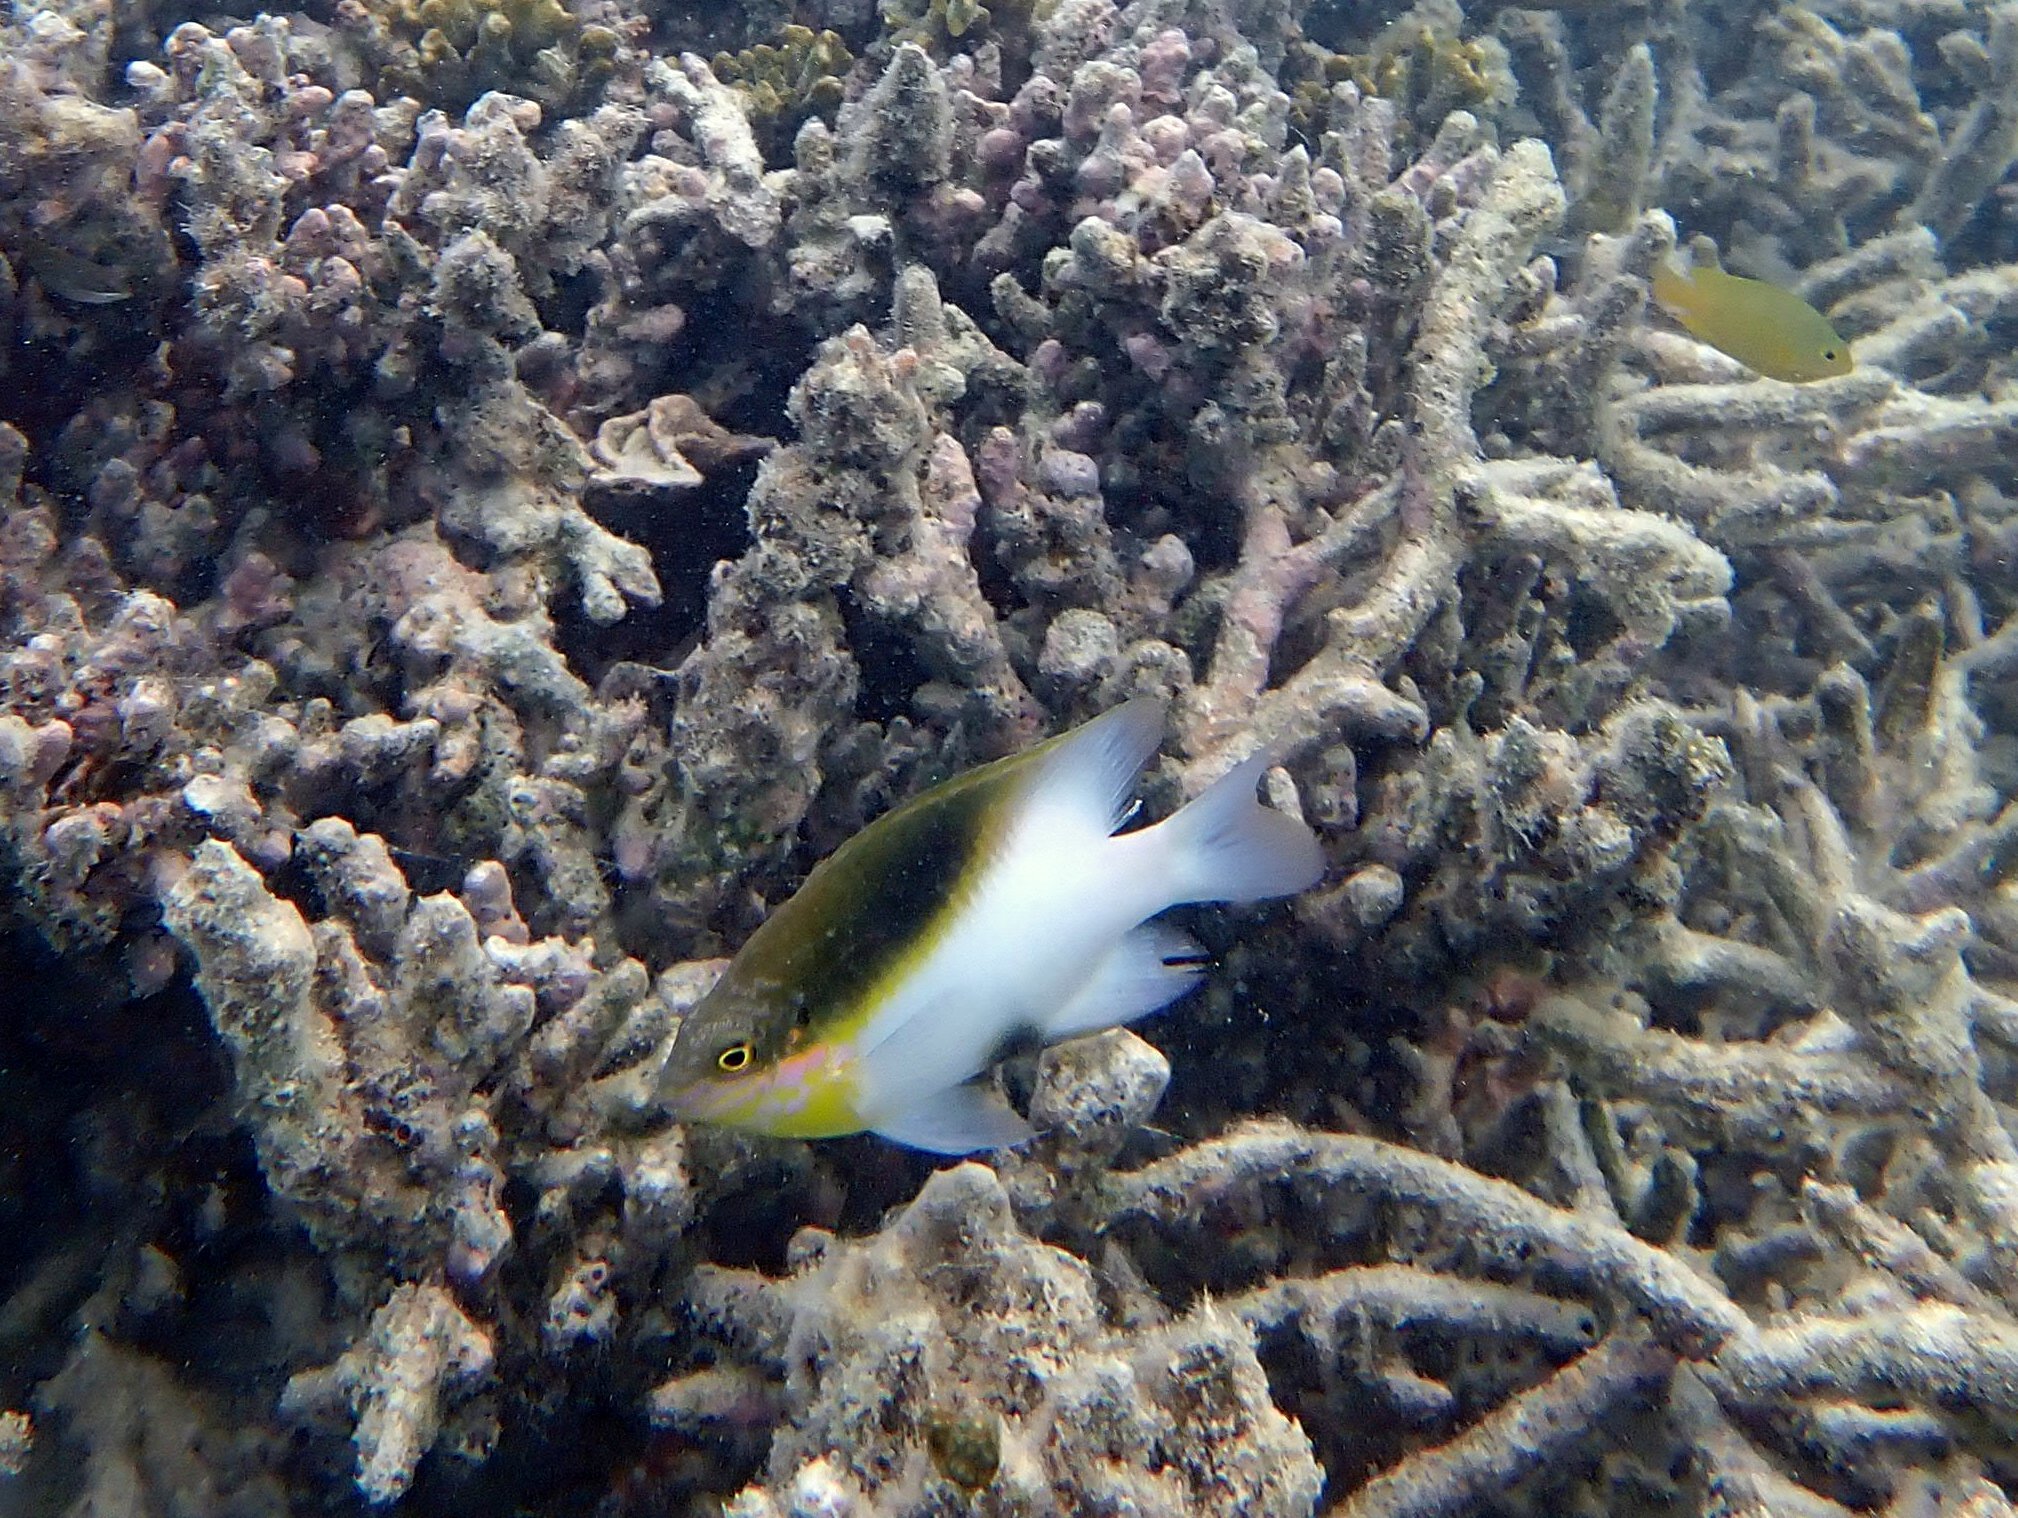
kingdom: Animalia
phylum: Chordata
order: Perciformes
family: Pomacentridae
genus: Dischistodus
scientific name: Dischistodus melanotus
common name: Black-vent damsel
